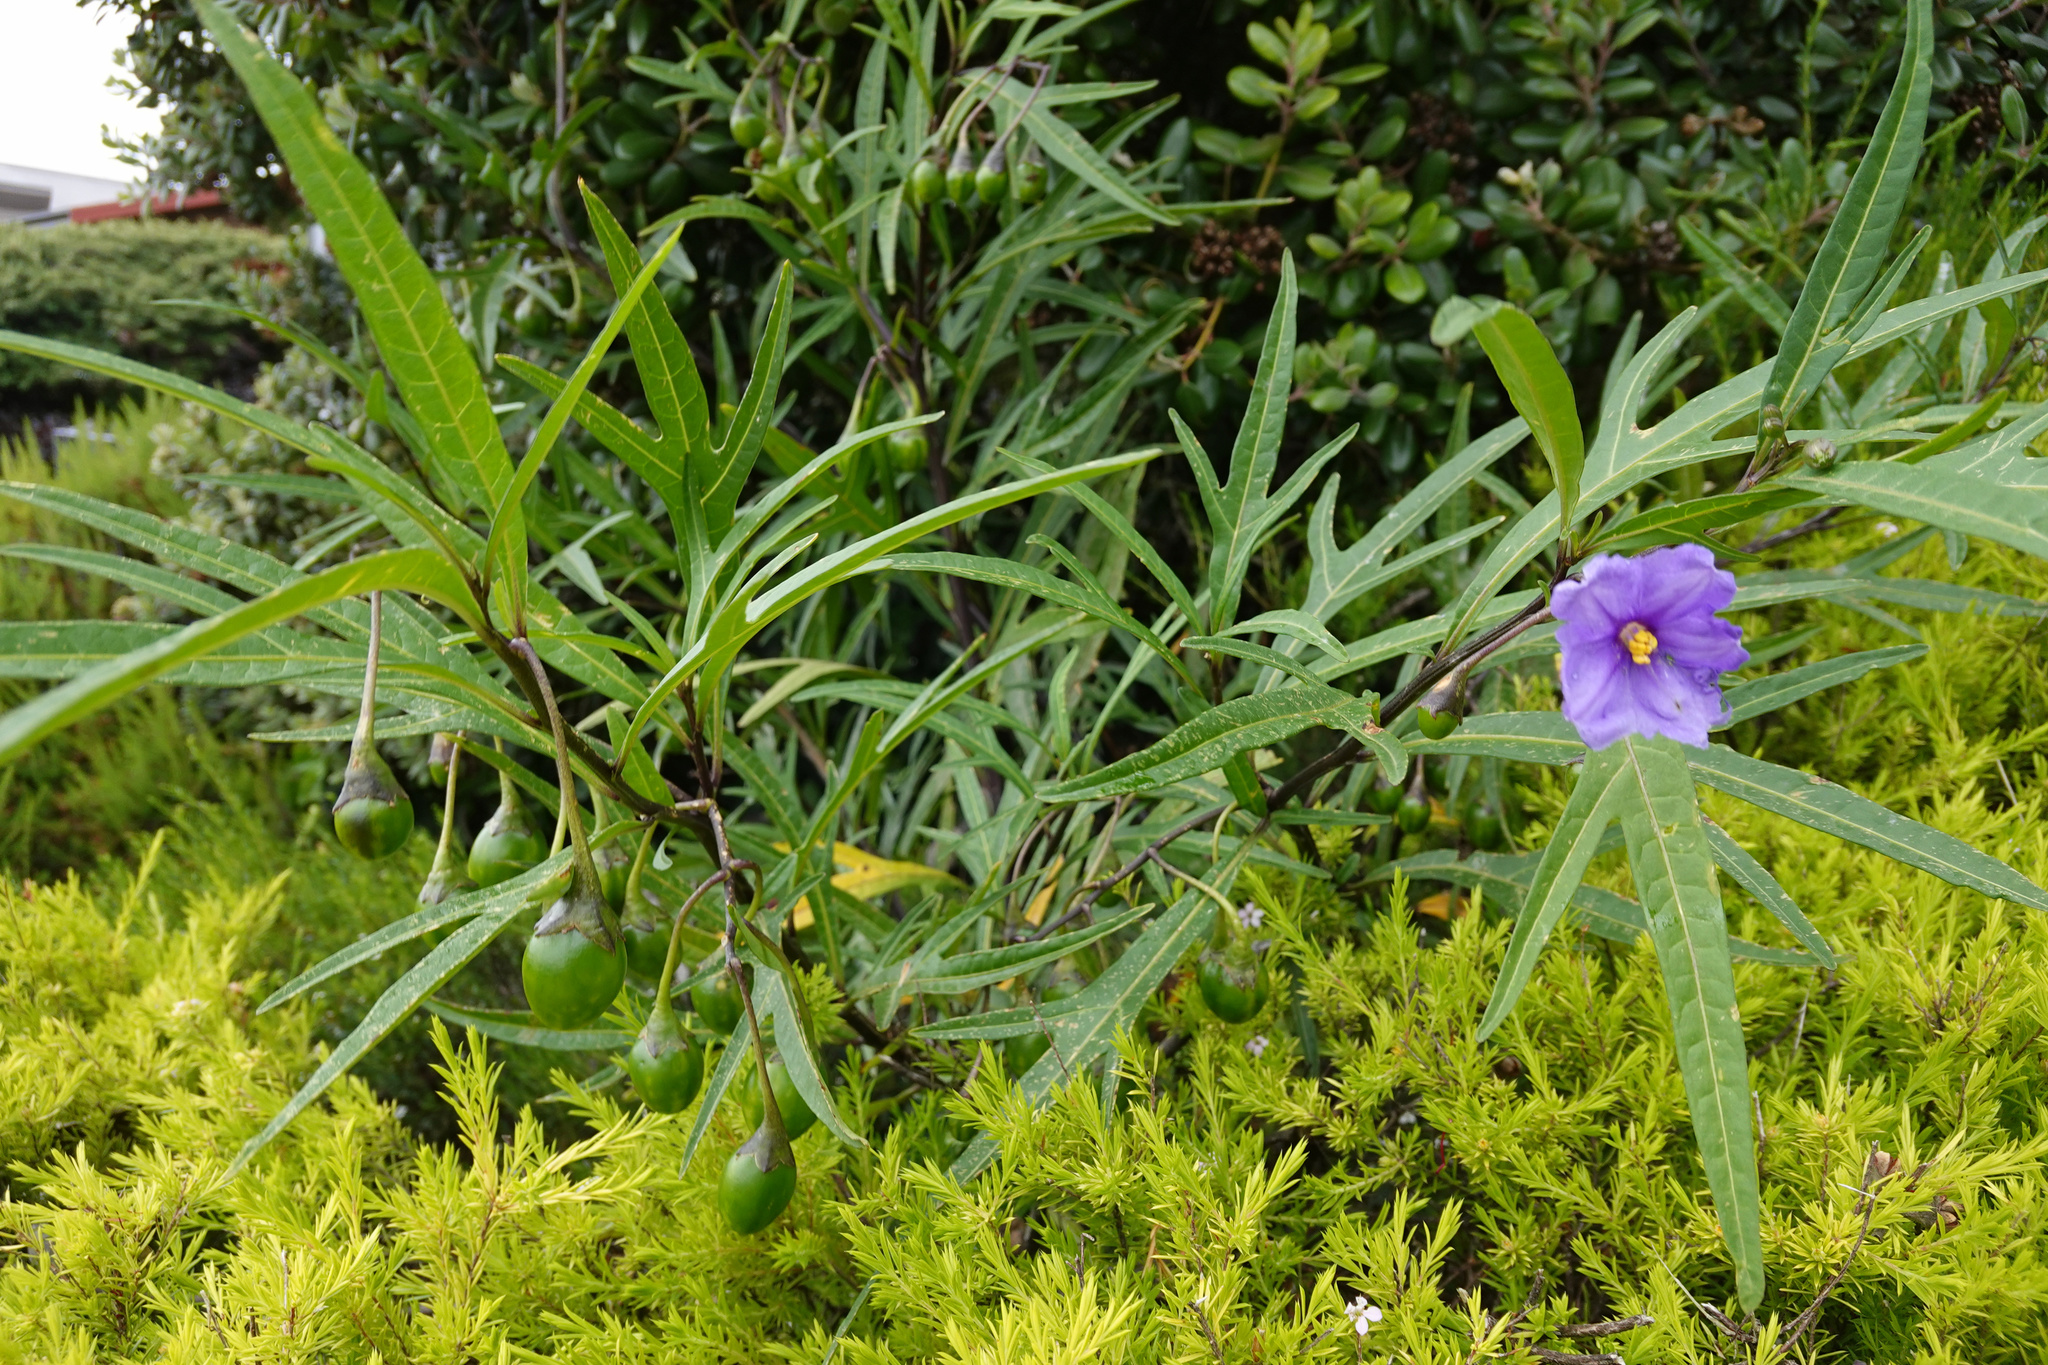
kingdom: Plantae
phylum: Tracheophyta
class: Magnoliopsida
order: Solanales
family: Solanaceae
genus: Solanum
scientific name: Solanum laciniatum
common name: Kangaroo-apple
